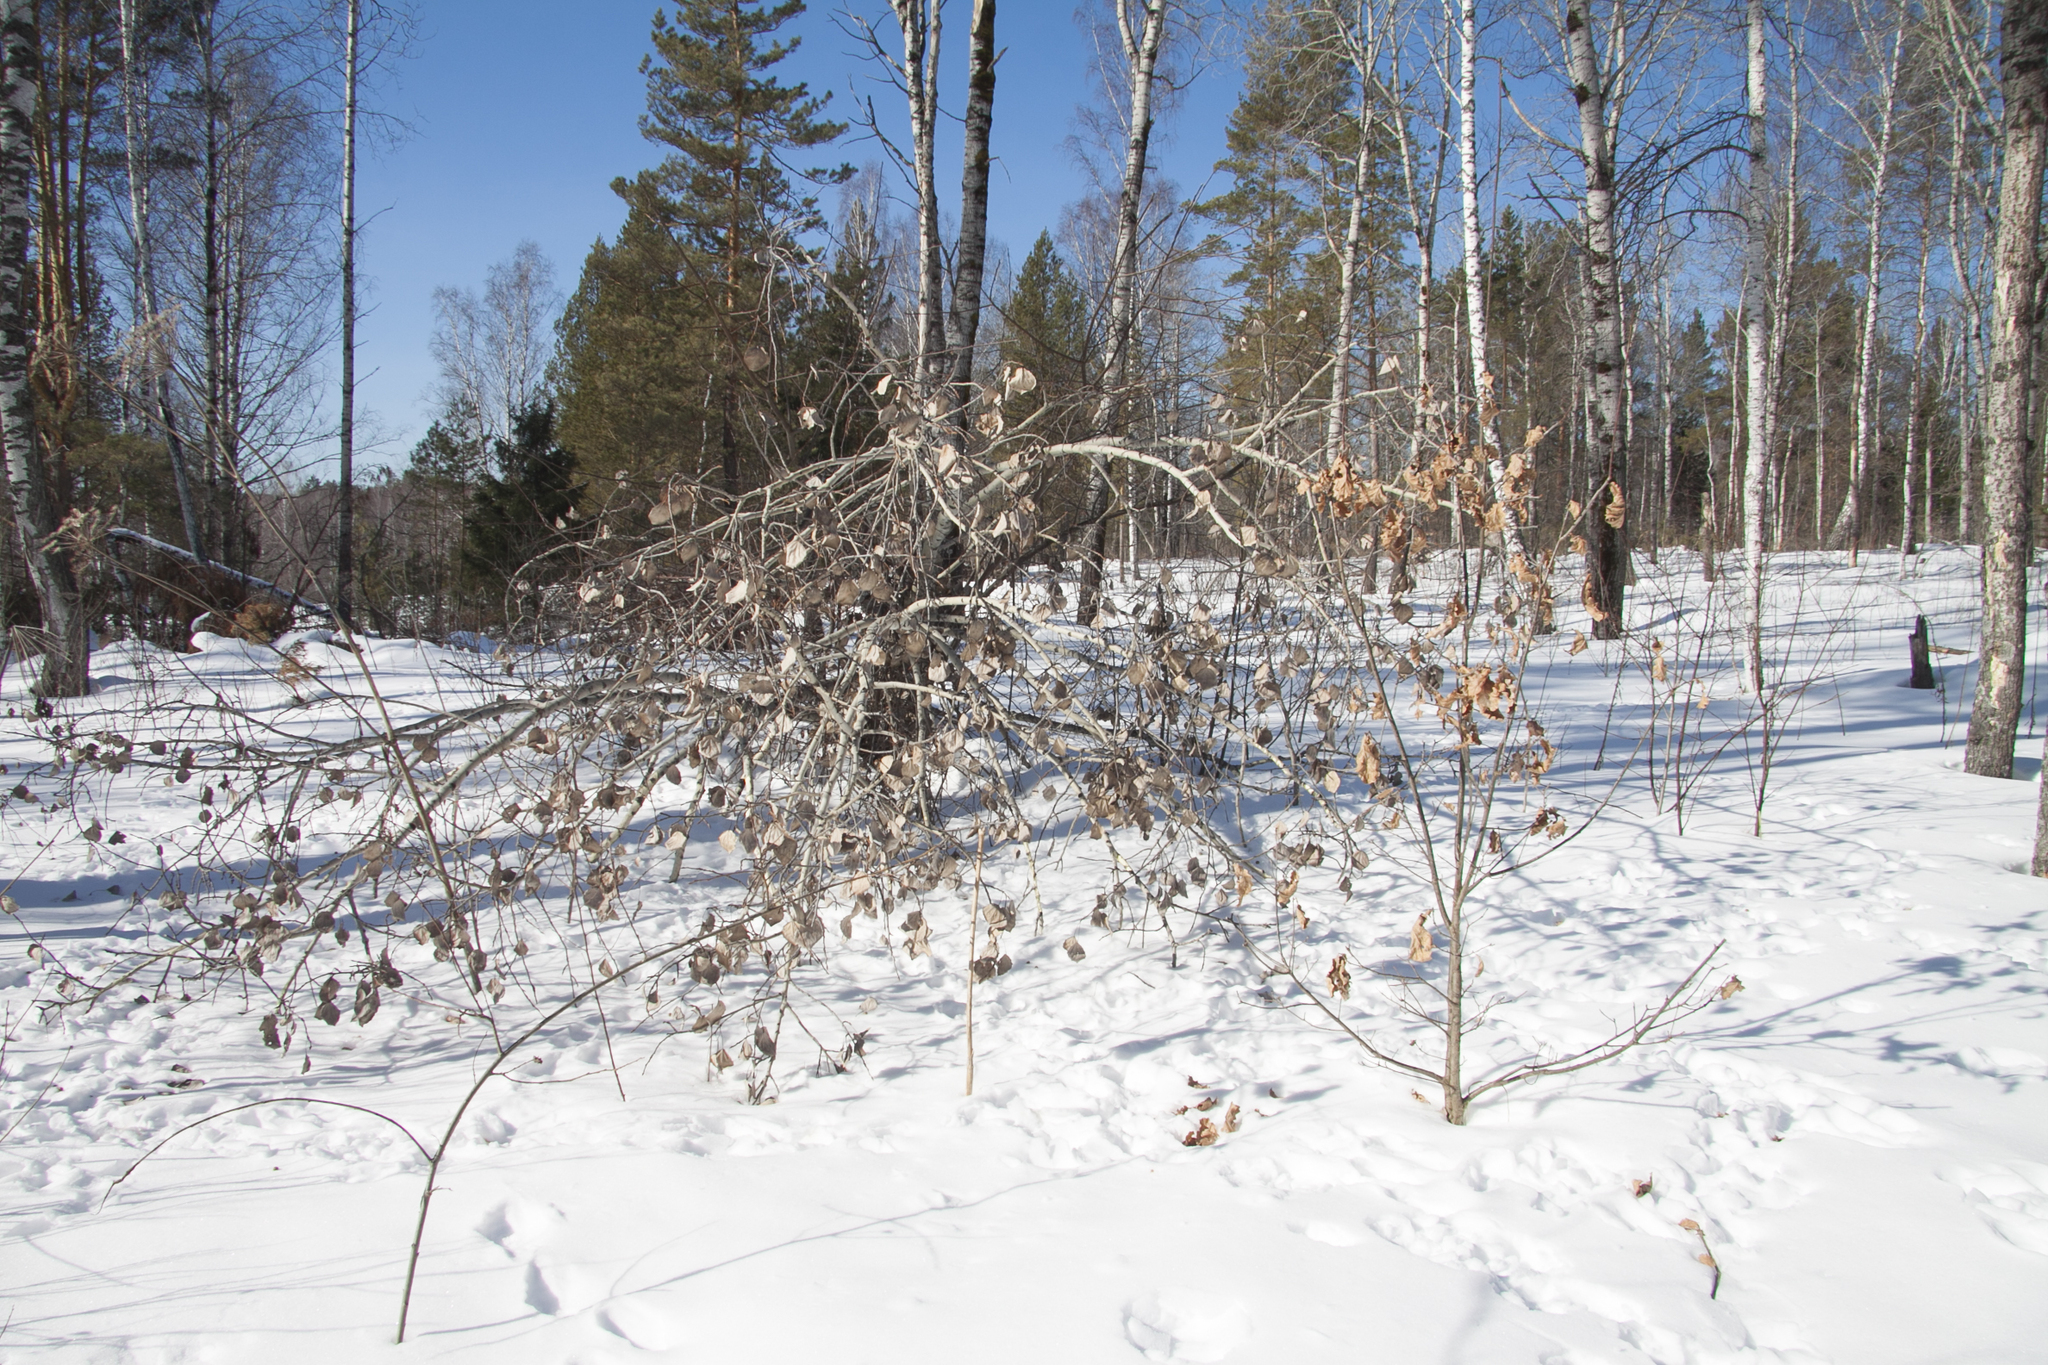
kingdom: Animalia
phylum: Chordata
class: Mammalia
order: Lagomorpha
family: Leporidae
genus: Lepus
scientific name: Lepus timidus
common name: Mountain hare
